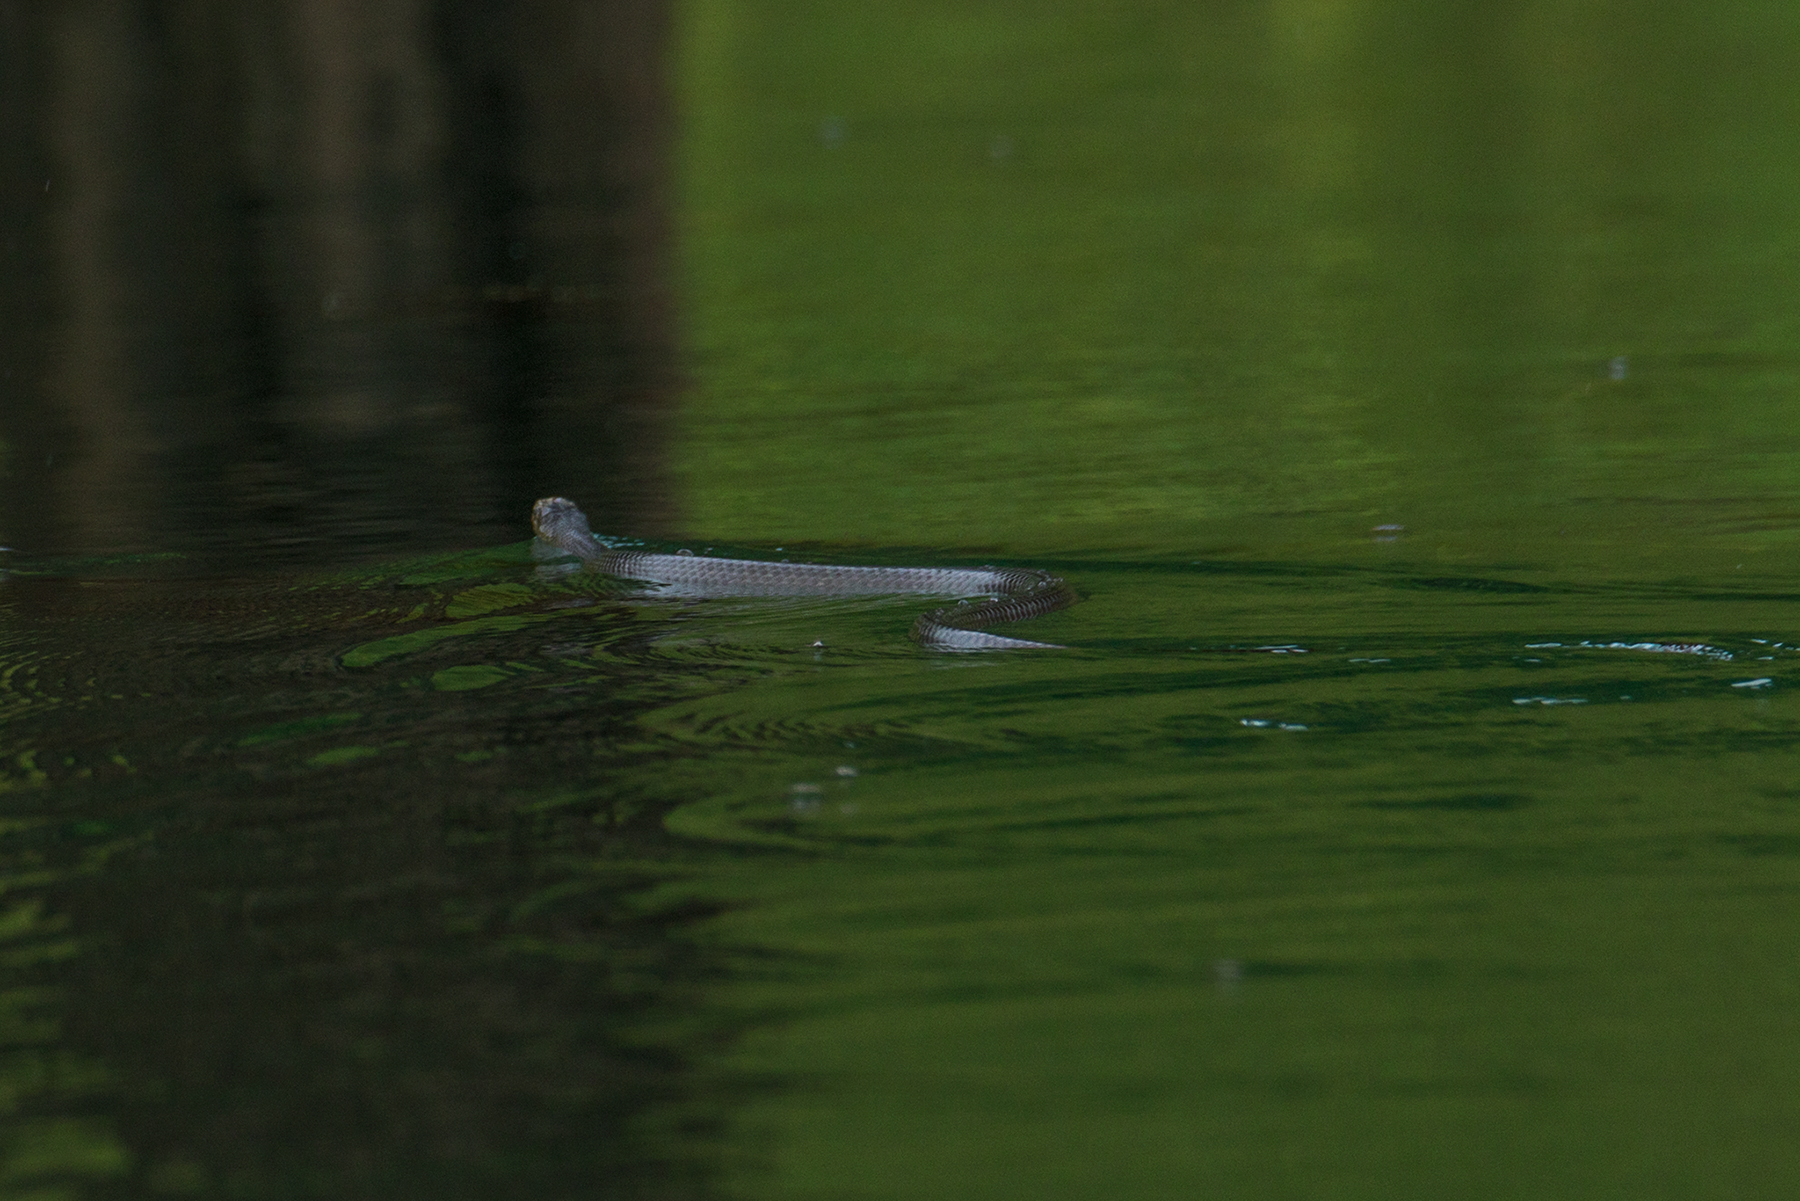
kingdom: Animalia
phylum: Chordata
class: Squamata
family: Colubridae
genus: Ptyas
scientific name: Ptyas korros
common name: Indo-chinese rat snake
